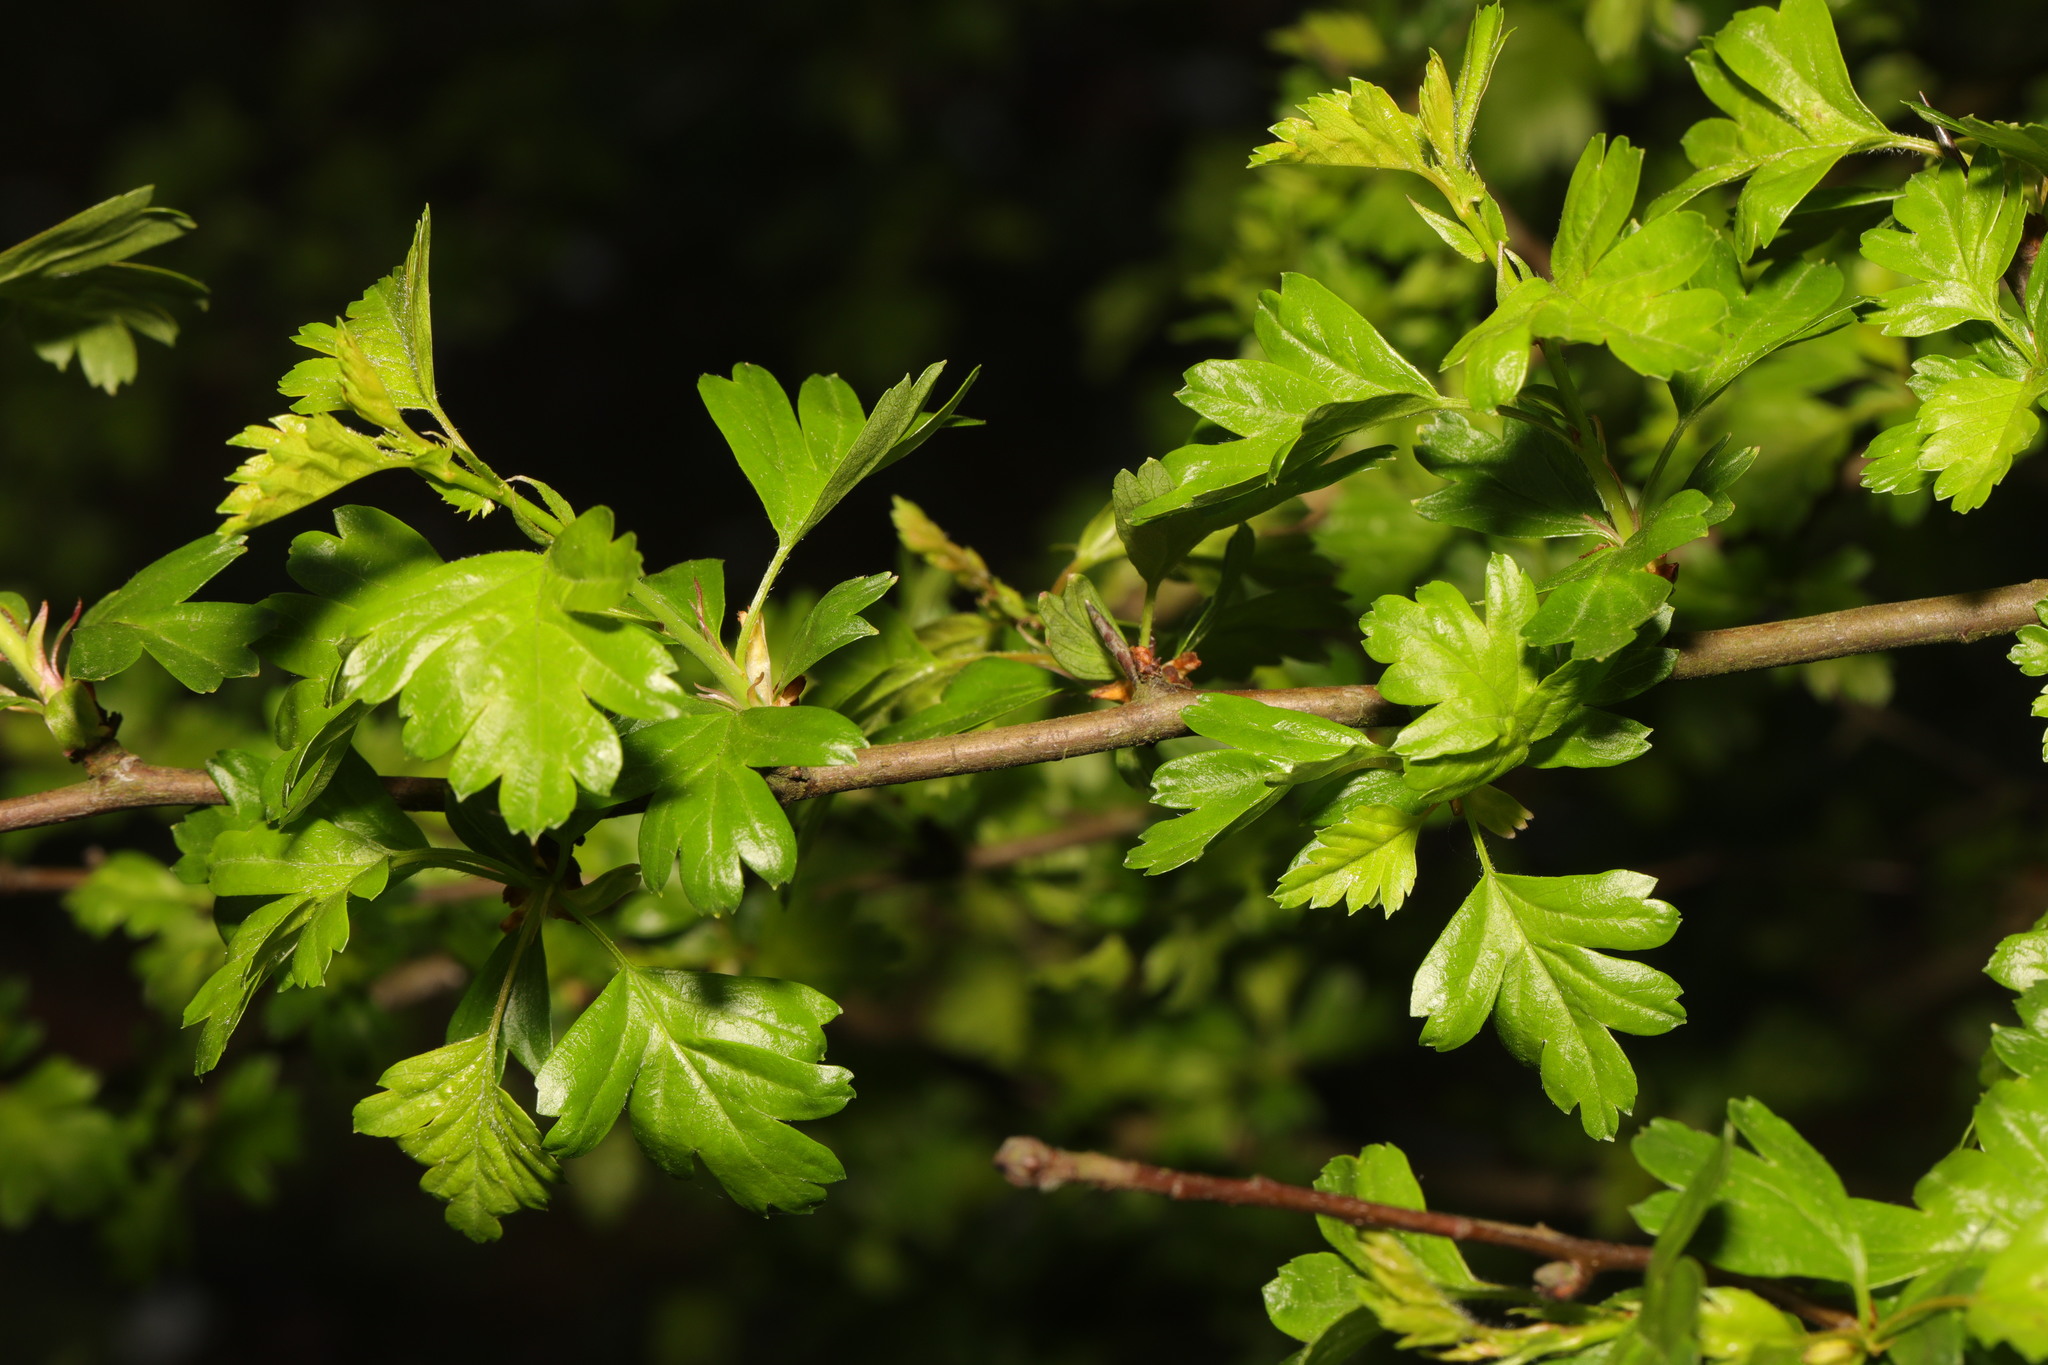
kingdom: Plantae
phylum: Tracheophyta
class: Magnoliopsida
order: Rosales
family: Rosaceae
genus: Crataegus
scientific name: Crataegus monogyna
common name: Hawthorn
